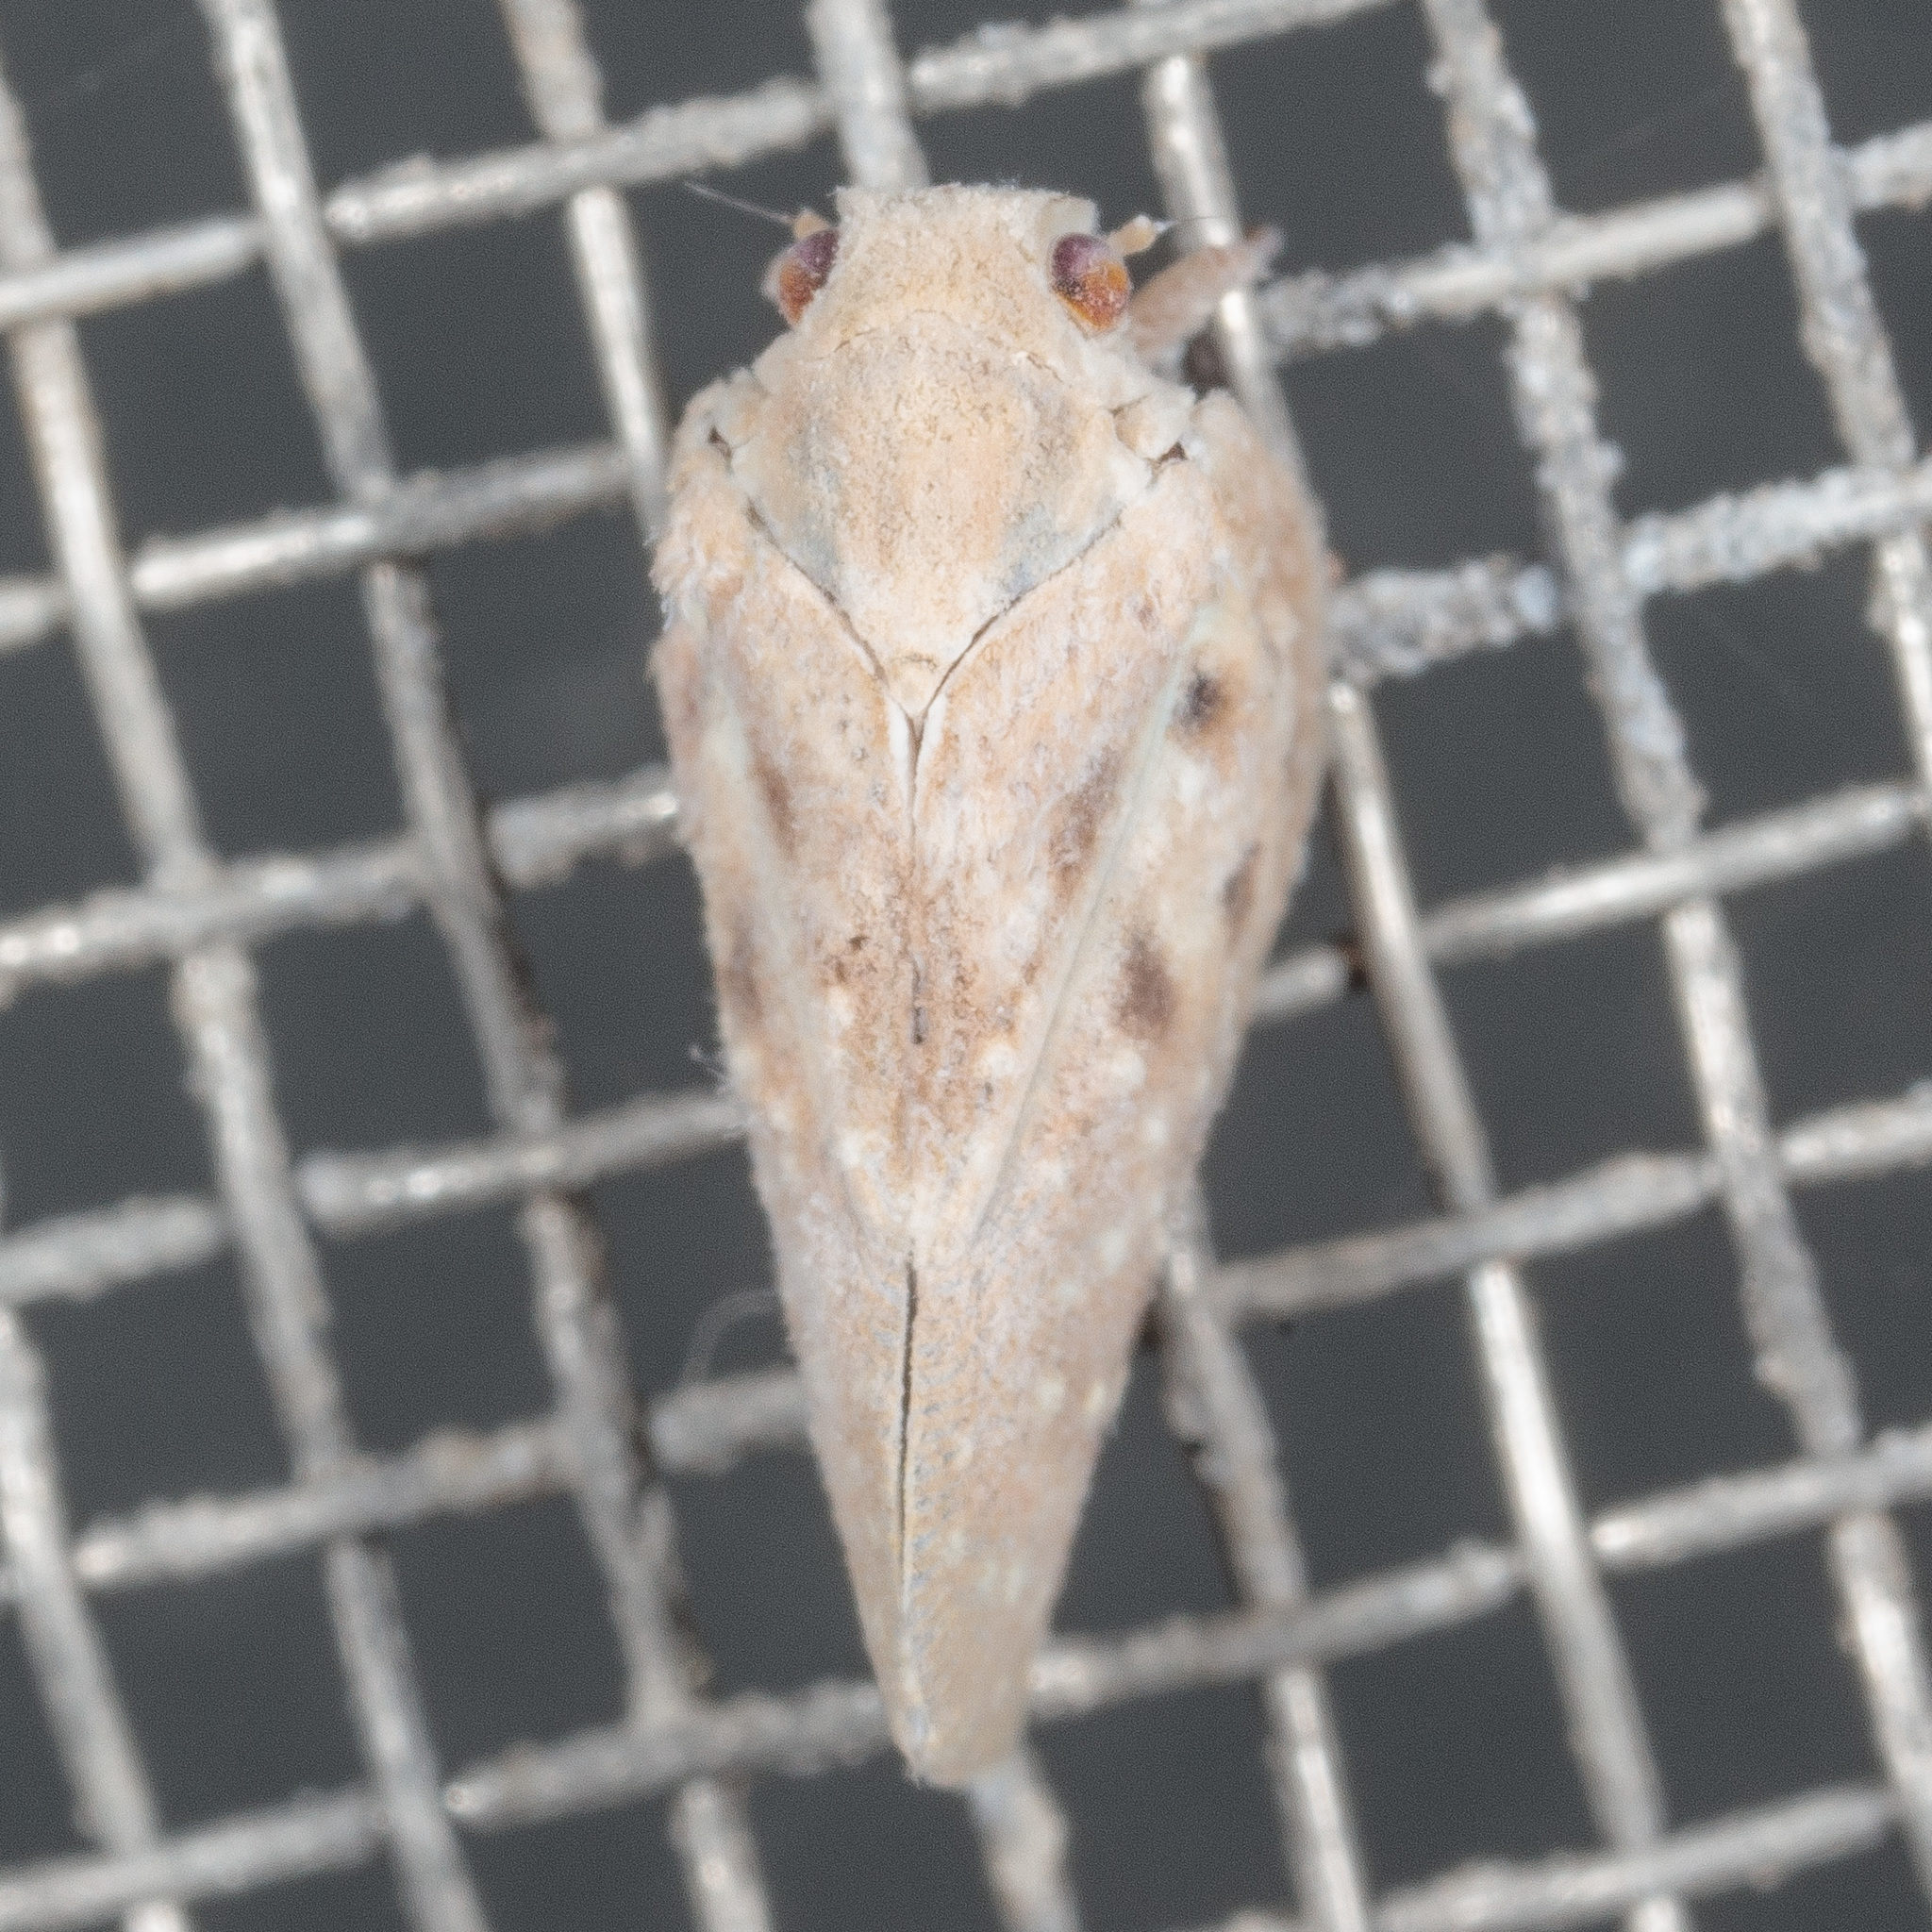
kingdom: Animalia
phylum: Arthropoda
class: Insecta
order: Hemiptera
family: Flatidae
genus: Metcalfa
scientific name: Metcalfa pruinosa
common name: Citrus flatid planthopper
